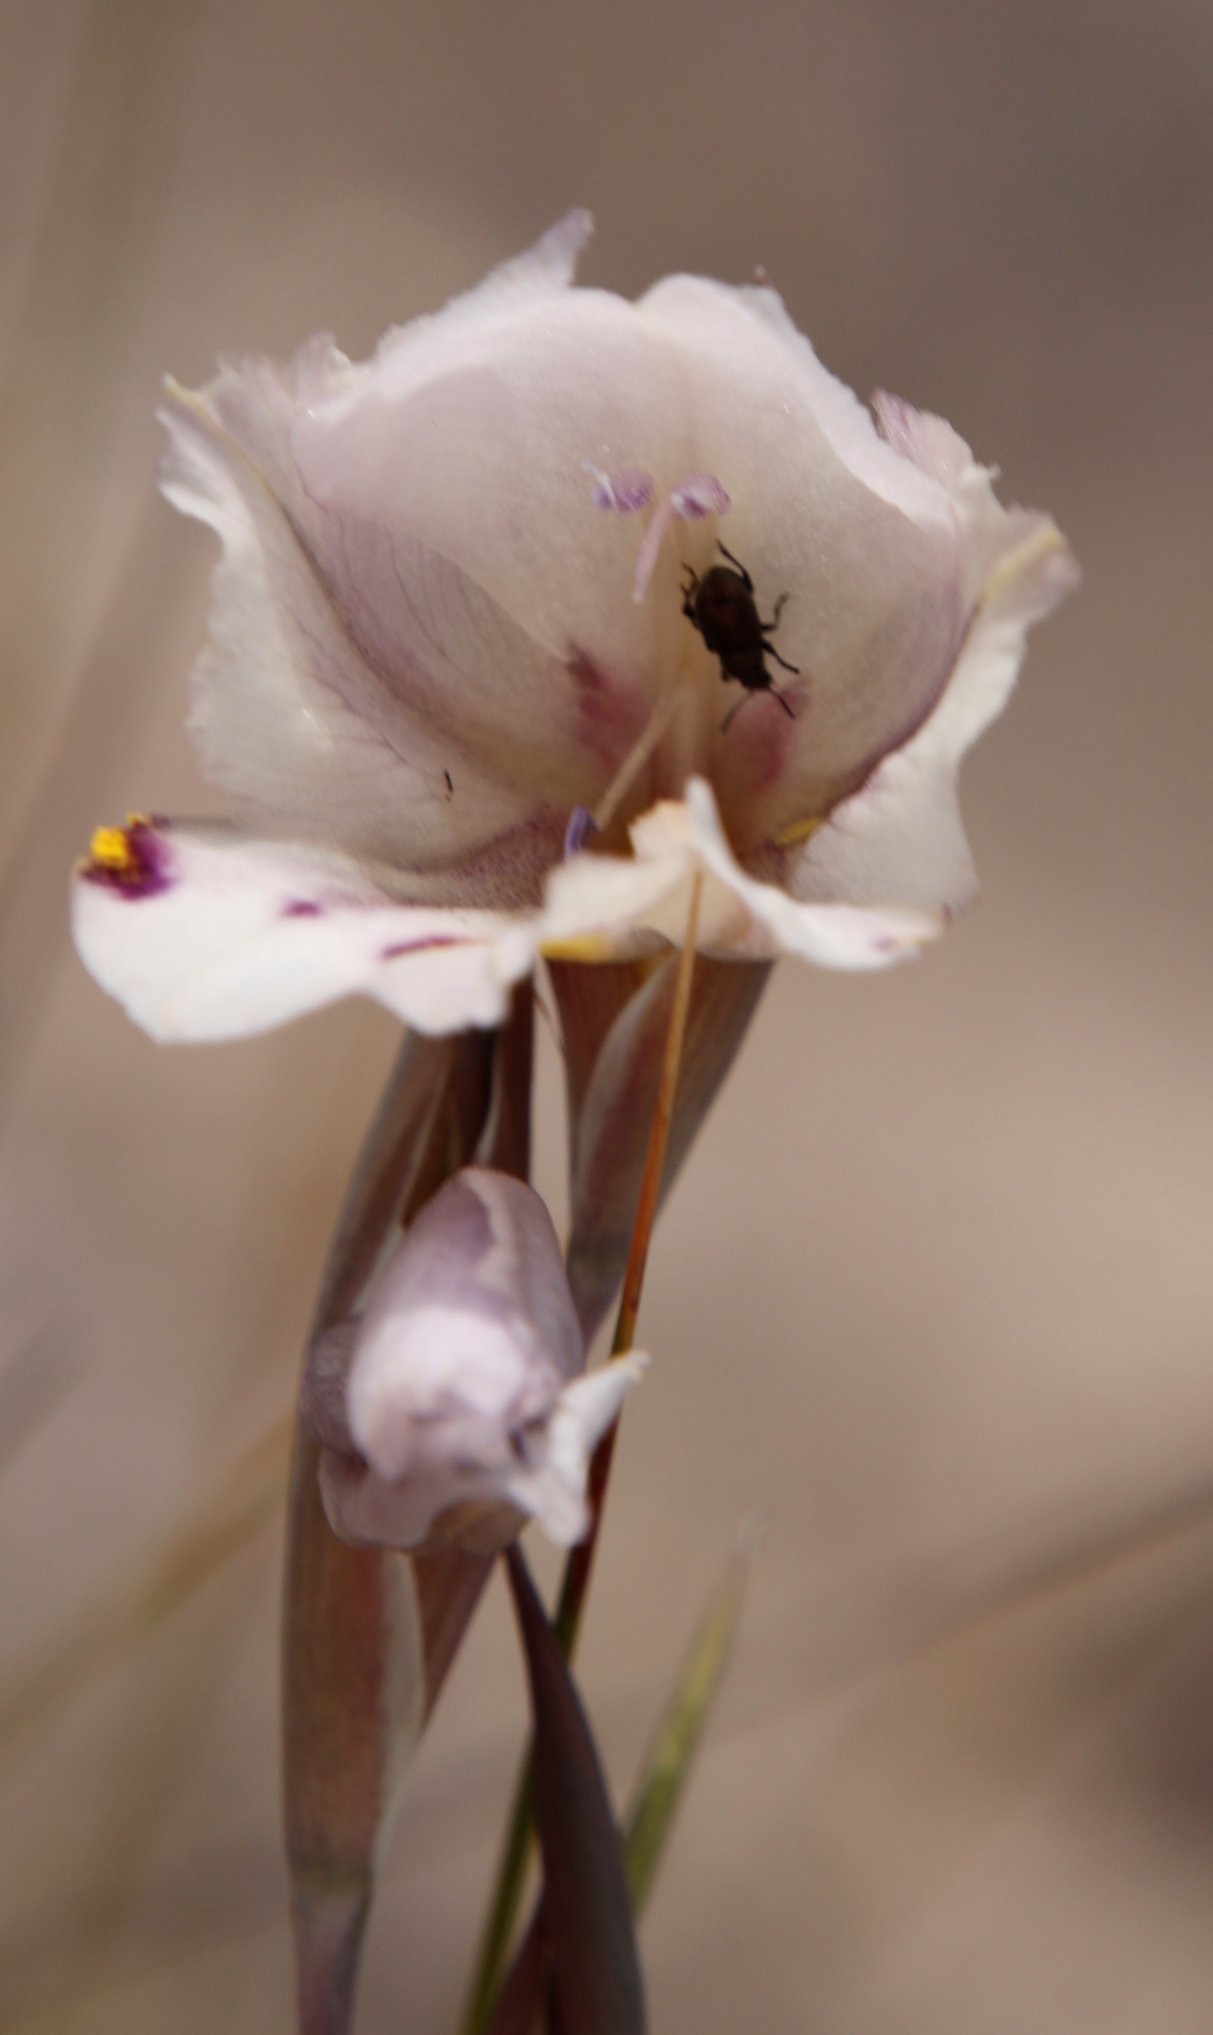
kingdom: Plantae
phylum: Tracheophyta
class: Liliopsida
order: Asparagales
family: Iridaceae
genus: Gladiolus
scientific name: Gladiolus patersoniae
